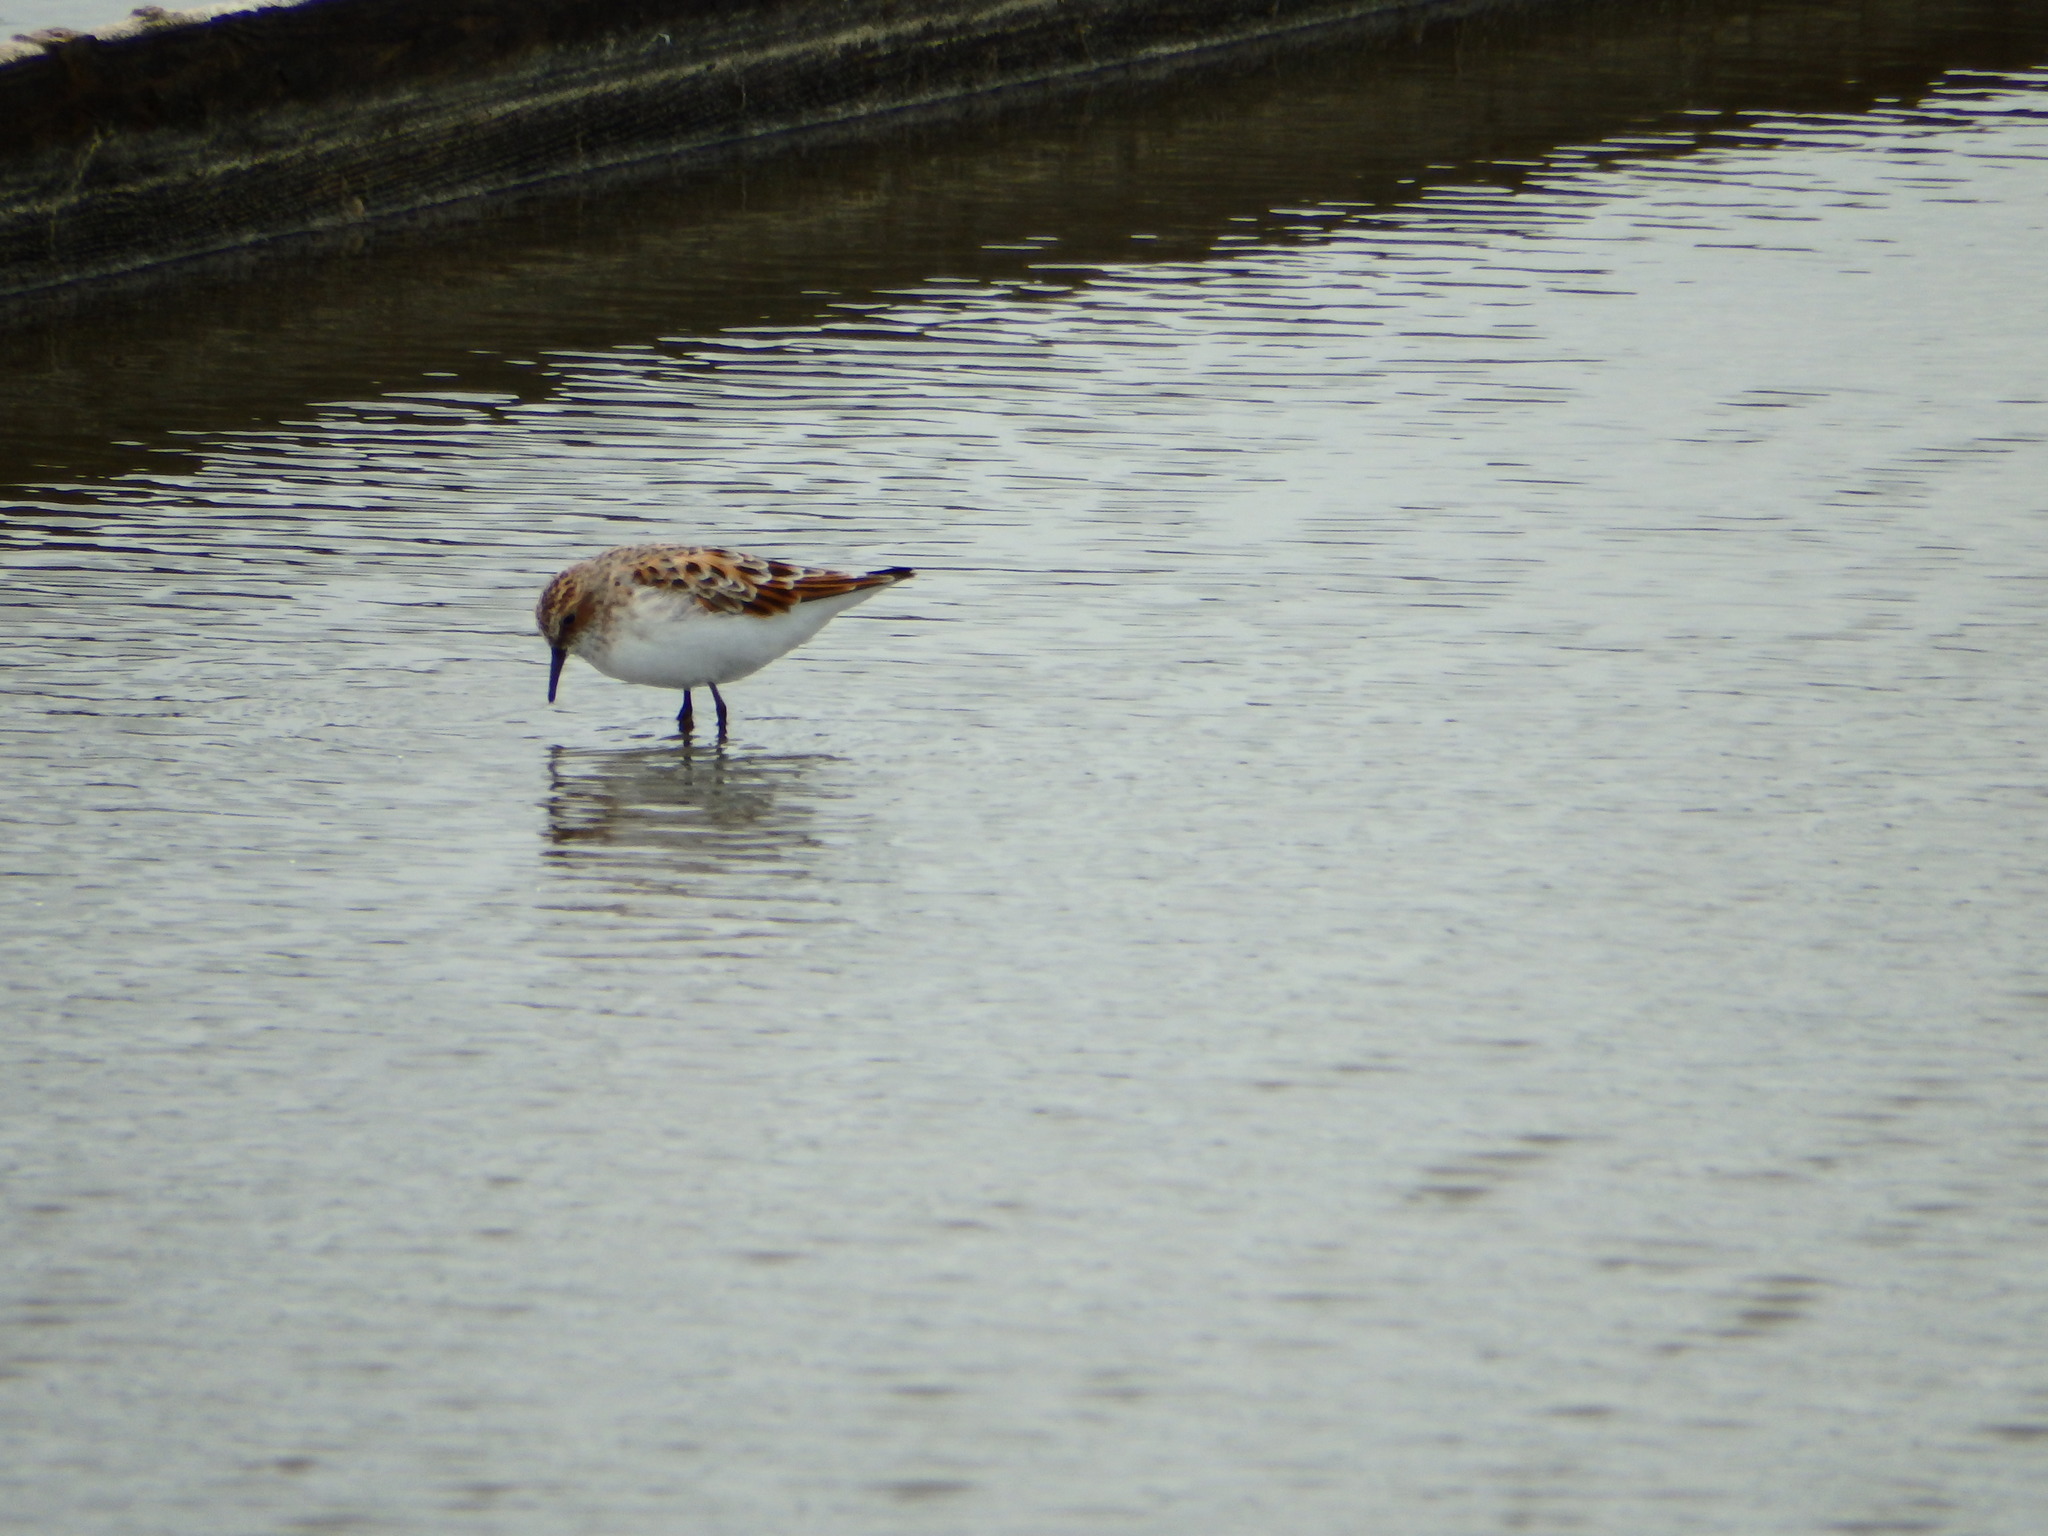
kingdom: Animalia
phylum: Chordata
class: Aves
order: Charadriiformes
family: Scolopacidae
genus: Calidris
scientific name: Calidris minuta
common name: Little stint
